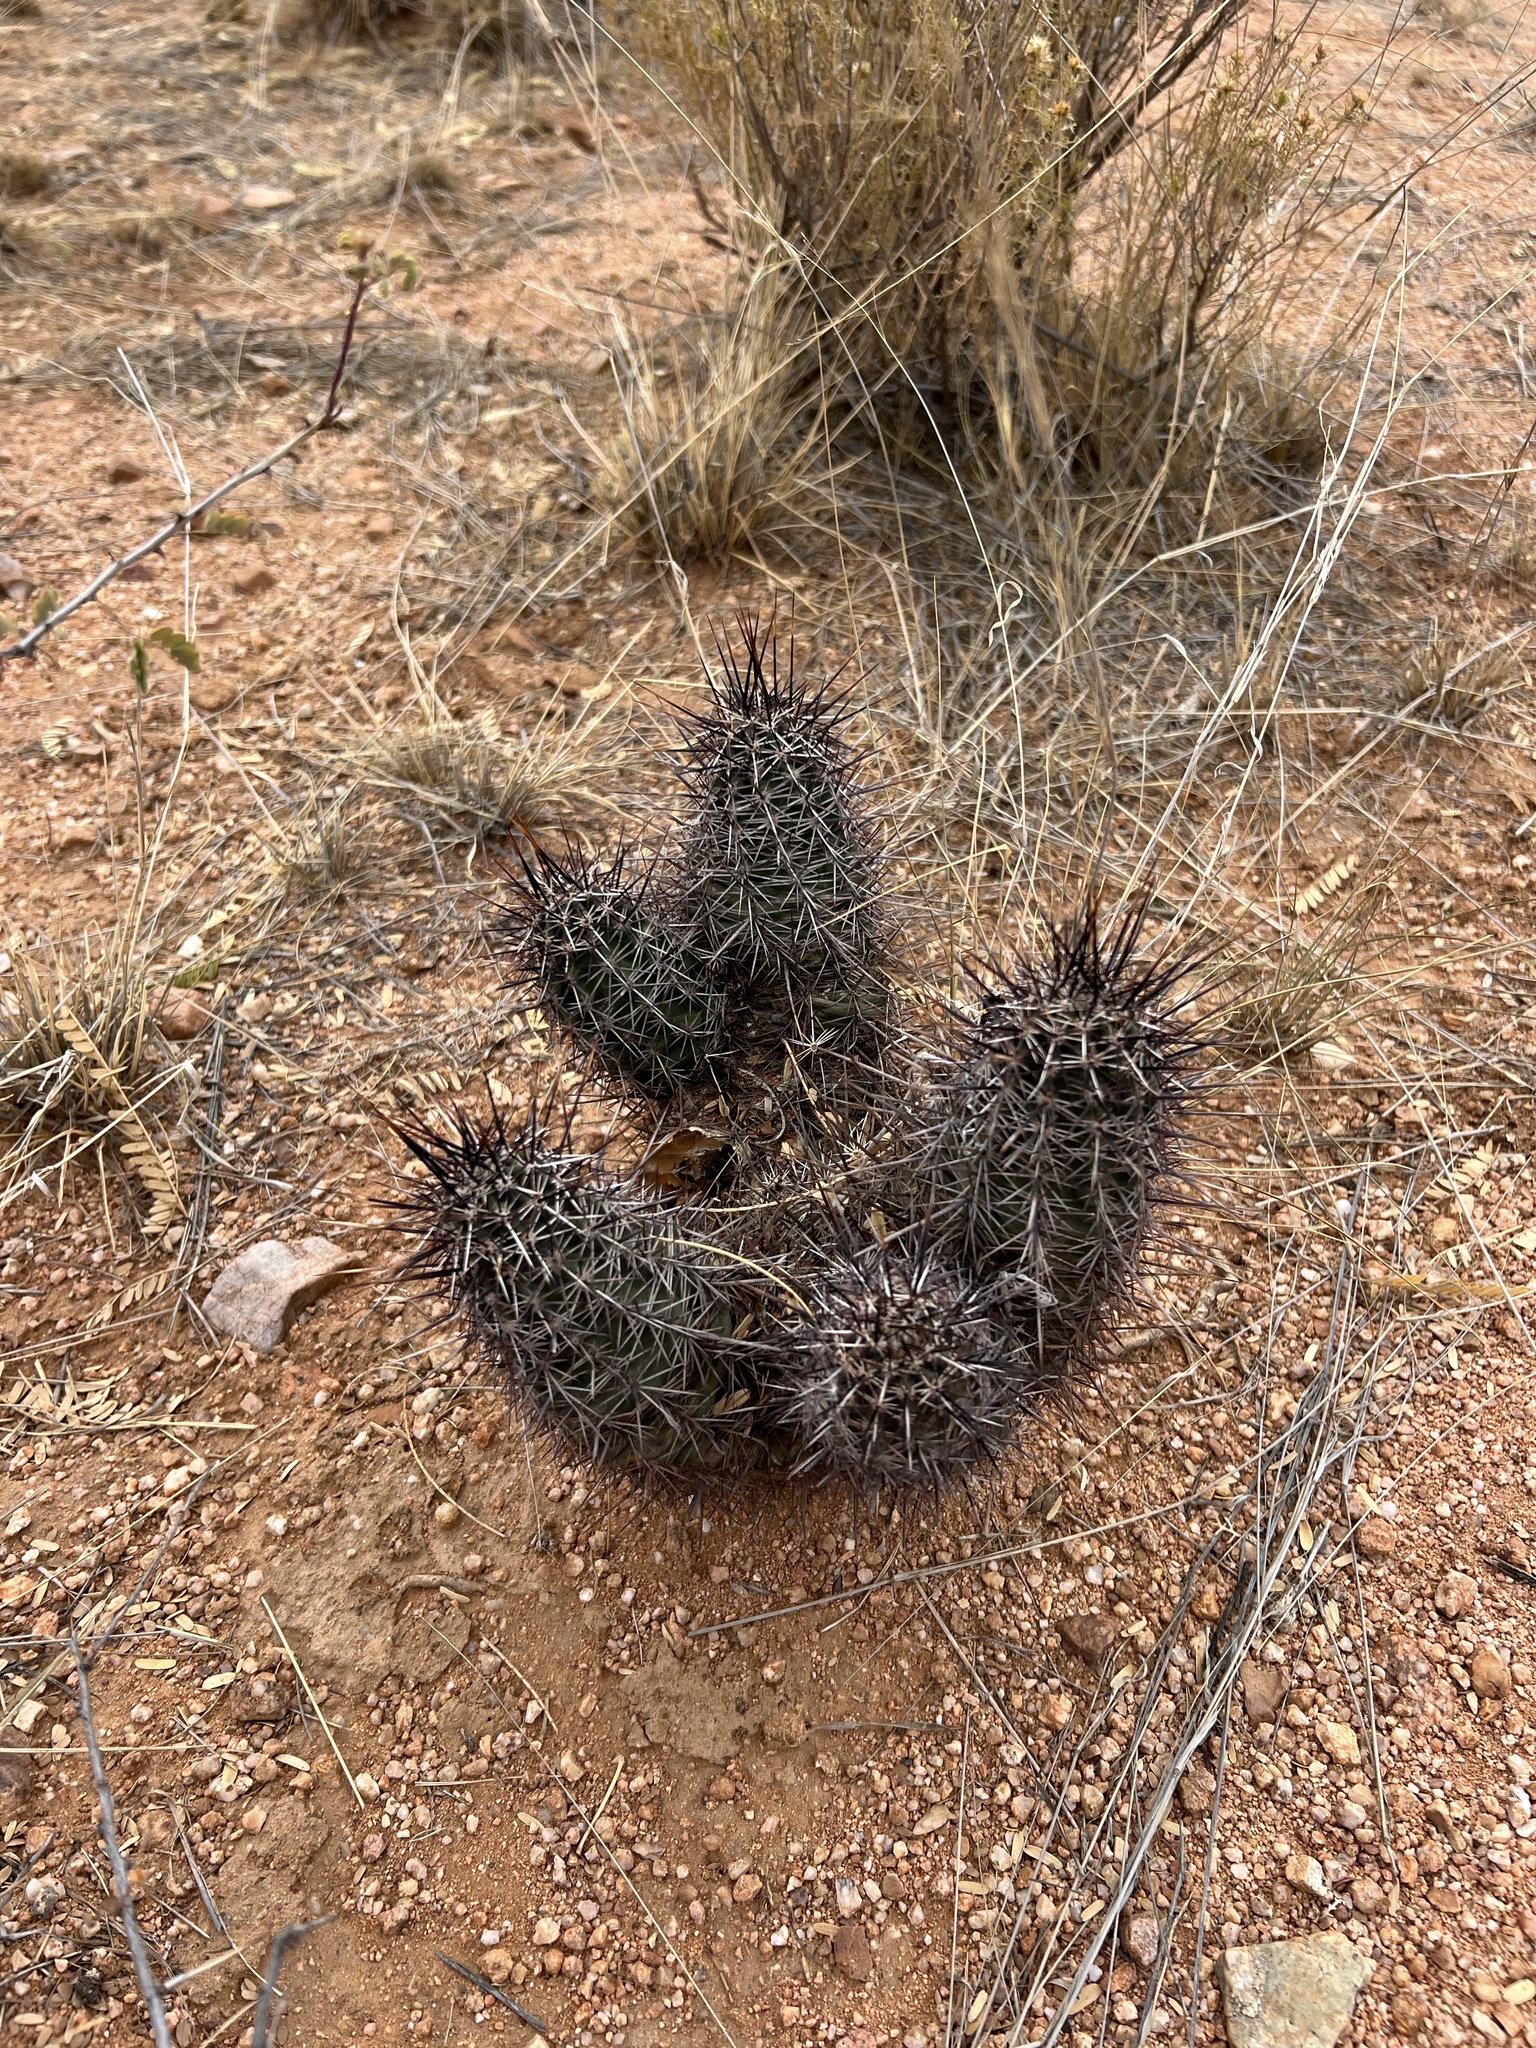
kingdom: Plantae
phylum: Tracheophyta
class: Magnoliopsida
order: Caryophyllales
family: Cactaceae
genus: Echinocereus
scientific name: Echinocereus fasciculatus
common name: Bundle hedgehog
